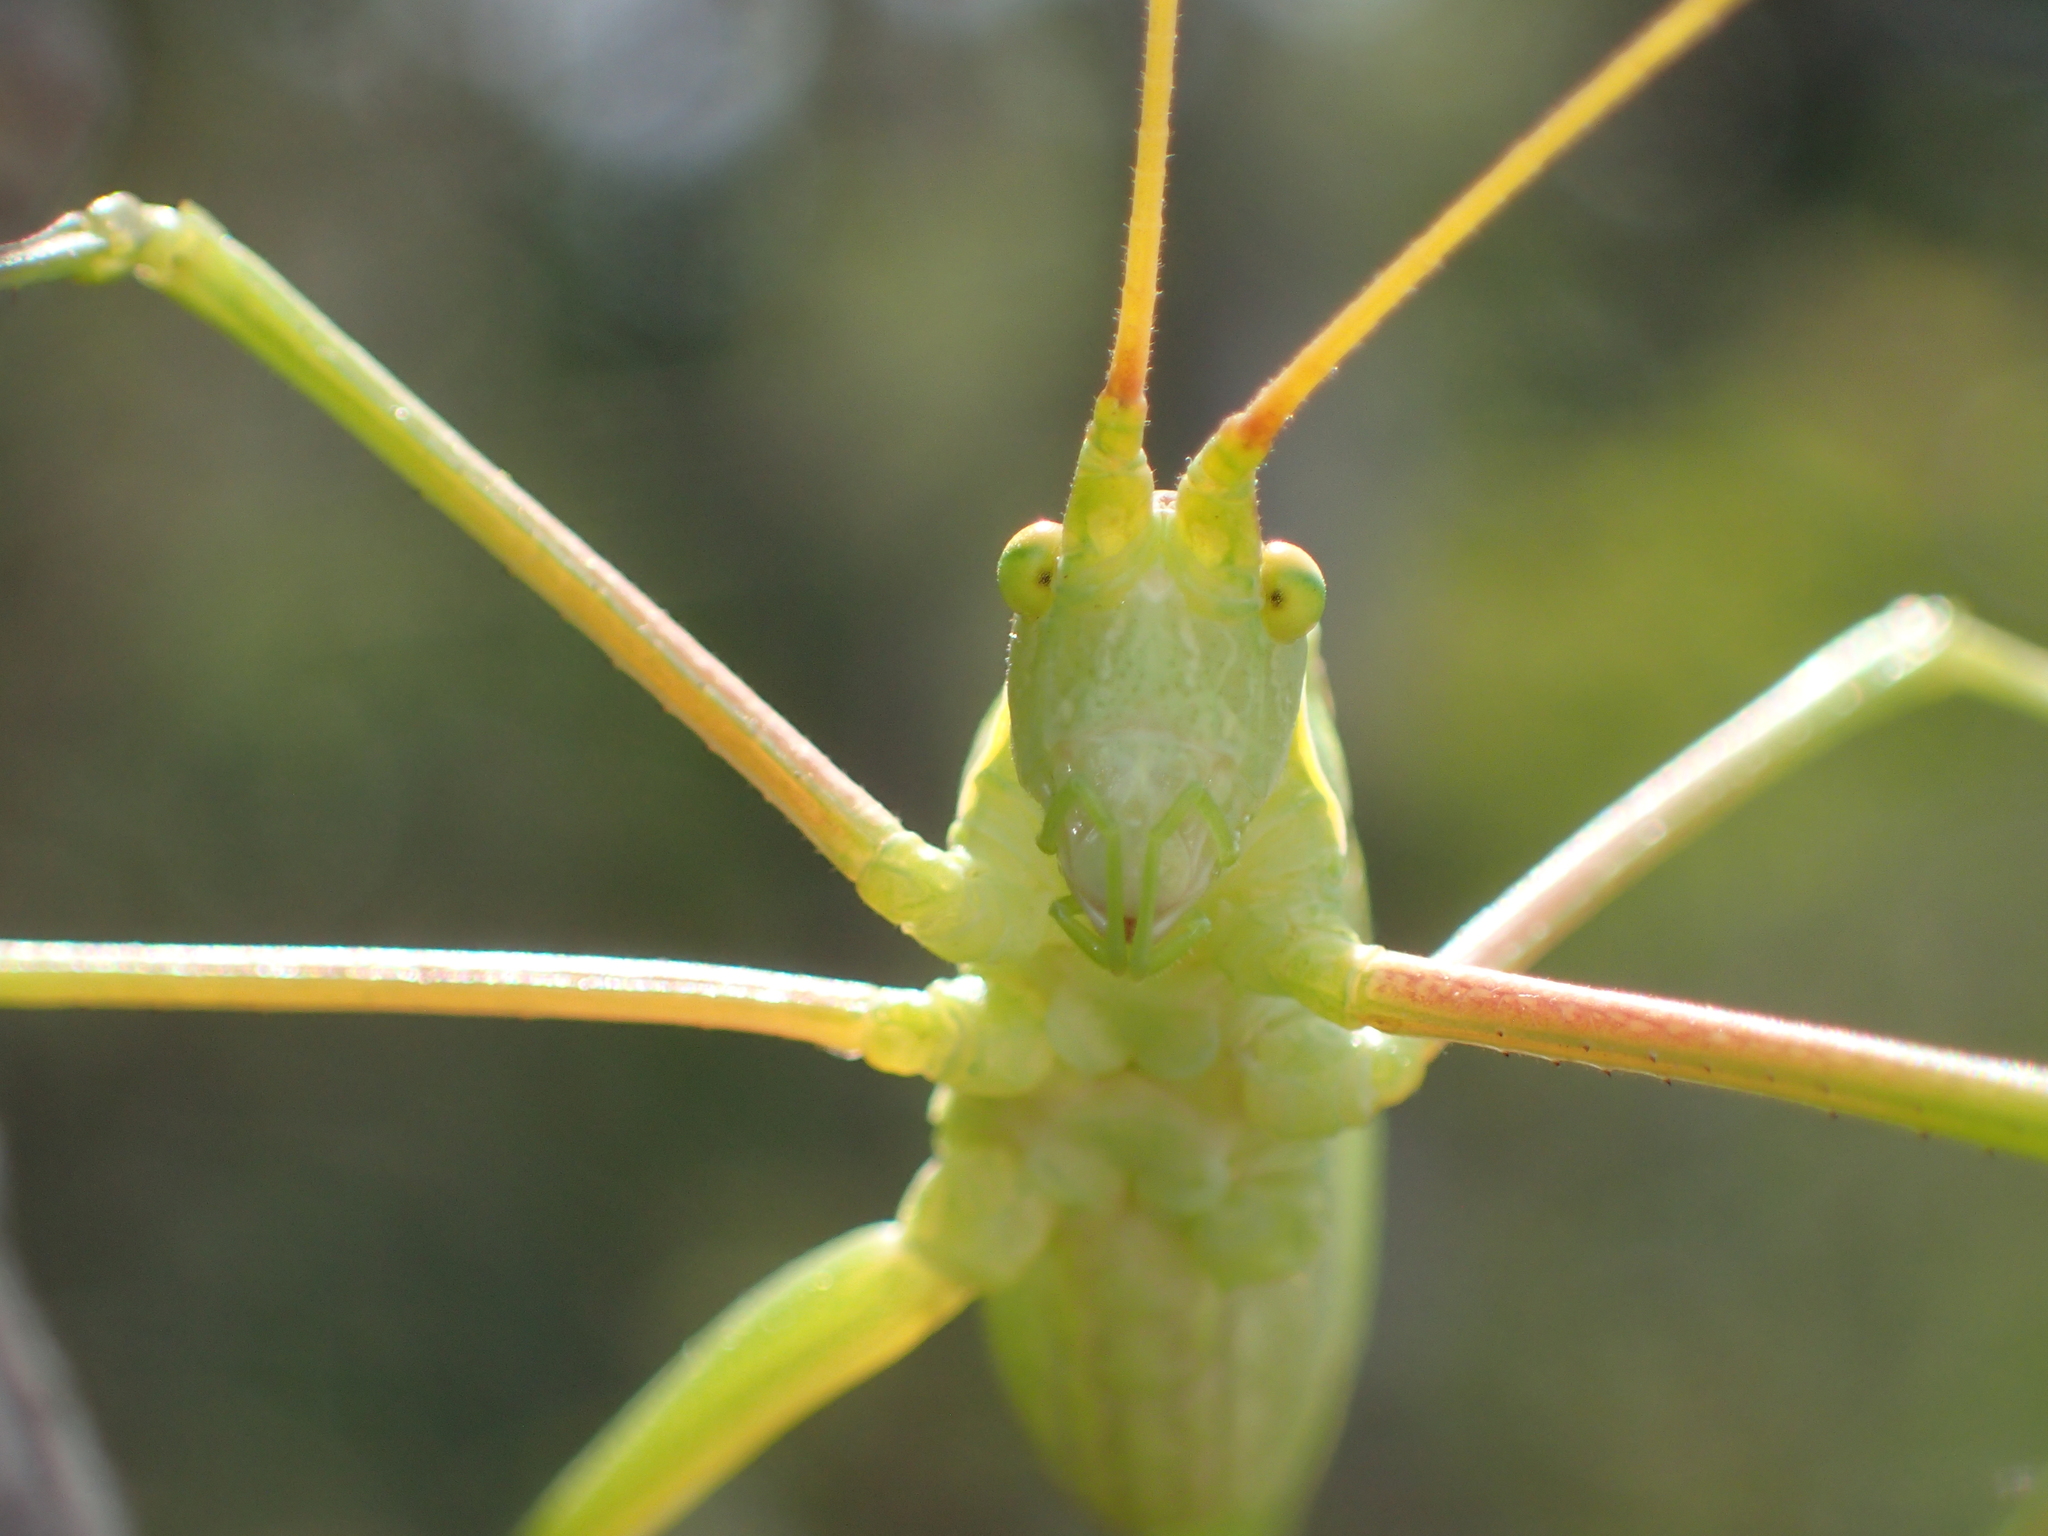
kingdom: Animalia
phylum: Arthropoda
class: Insecta
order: Orthoptera
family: Tettigoniidae
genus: Acrometopa
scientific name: Acrometopa macropoda
